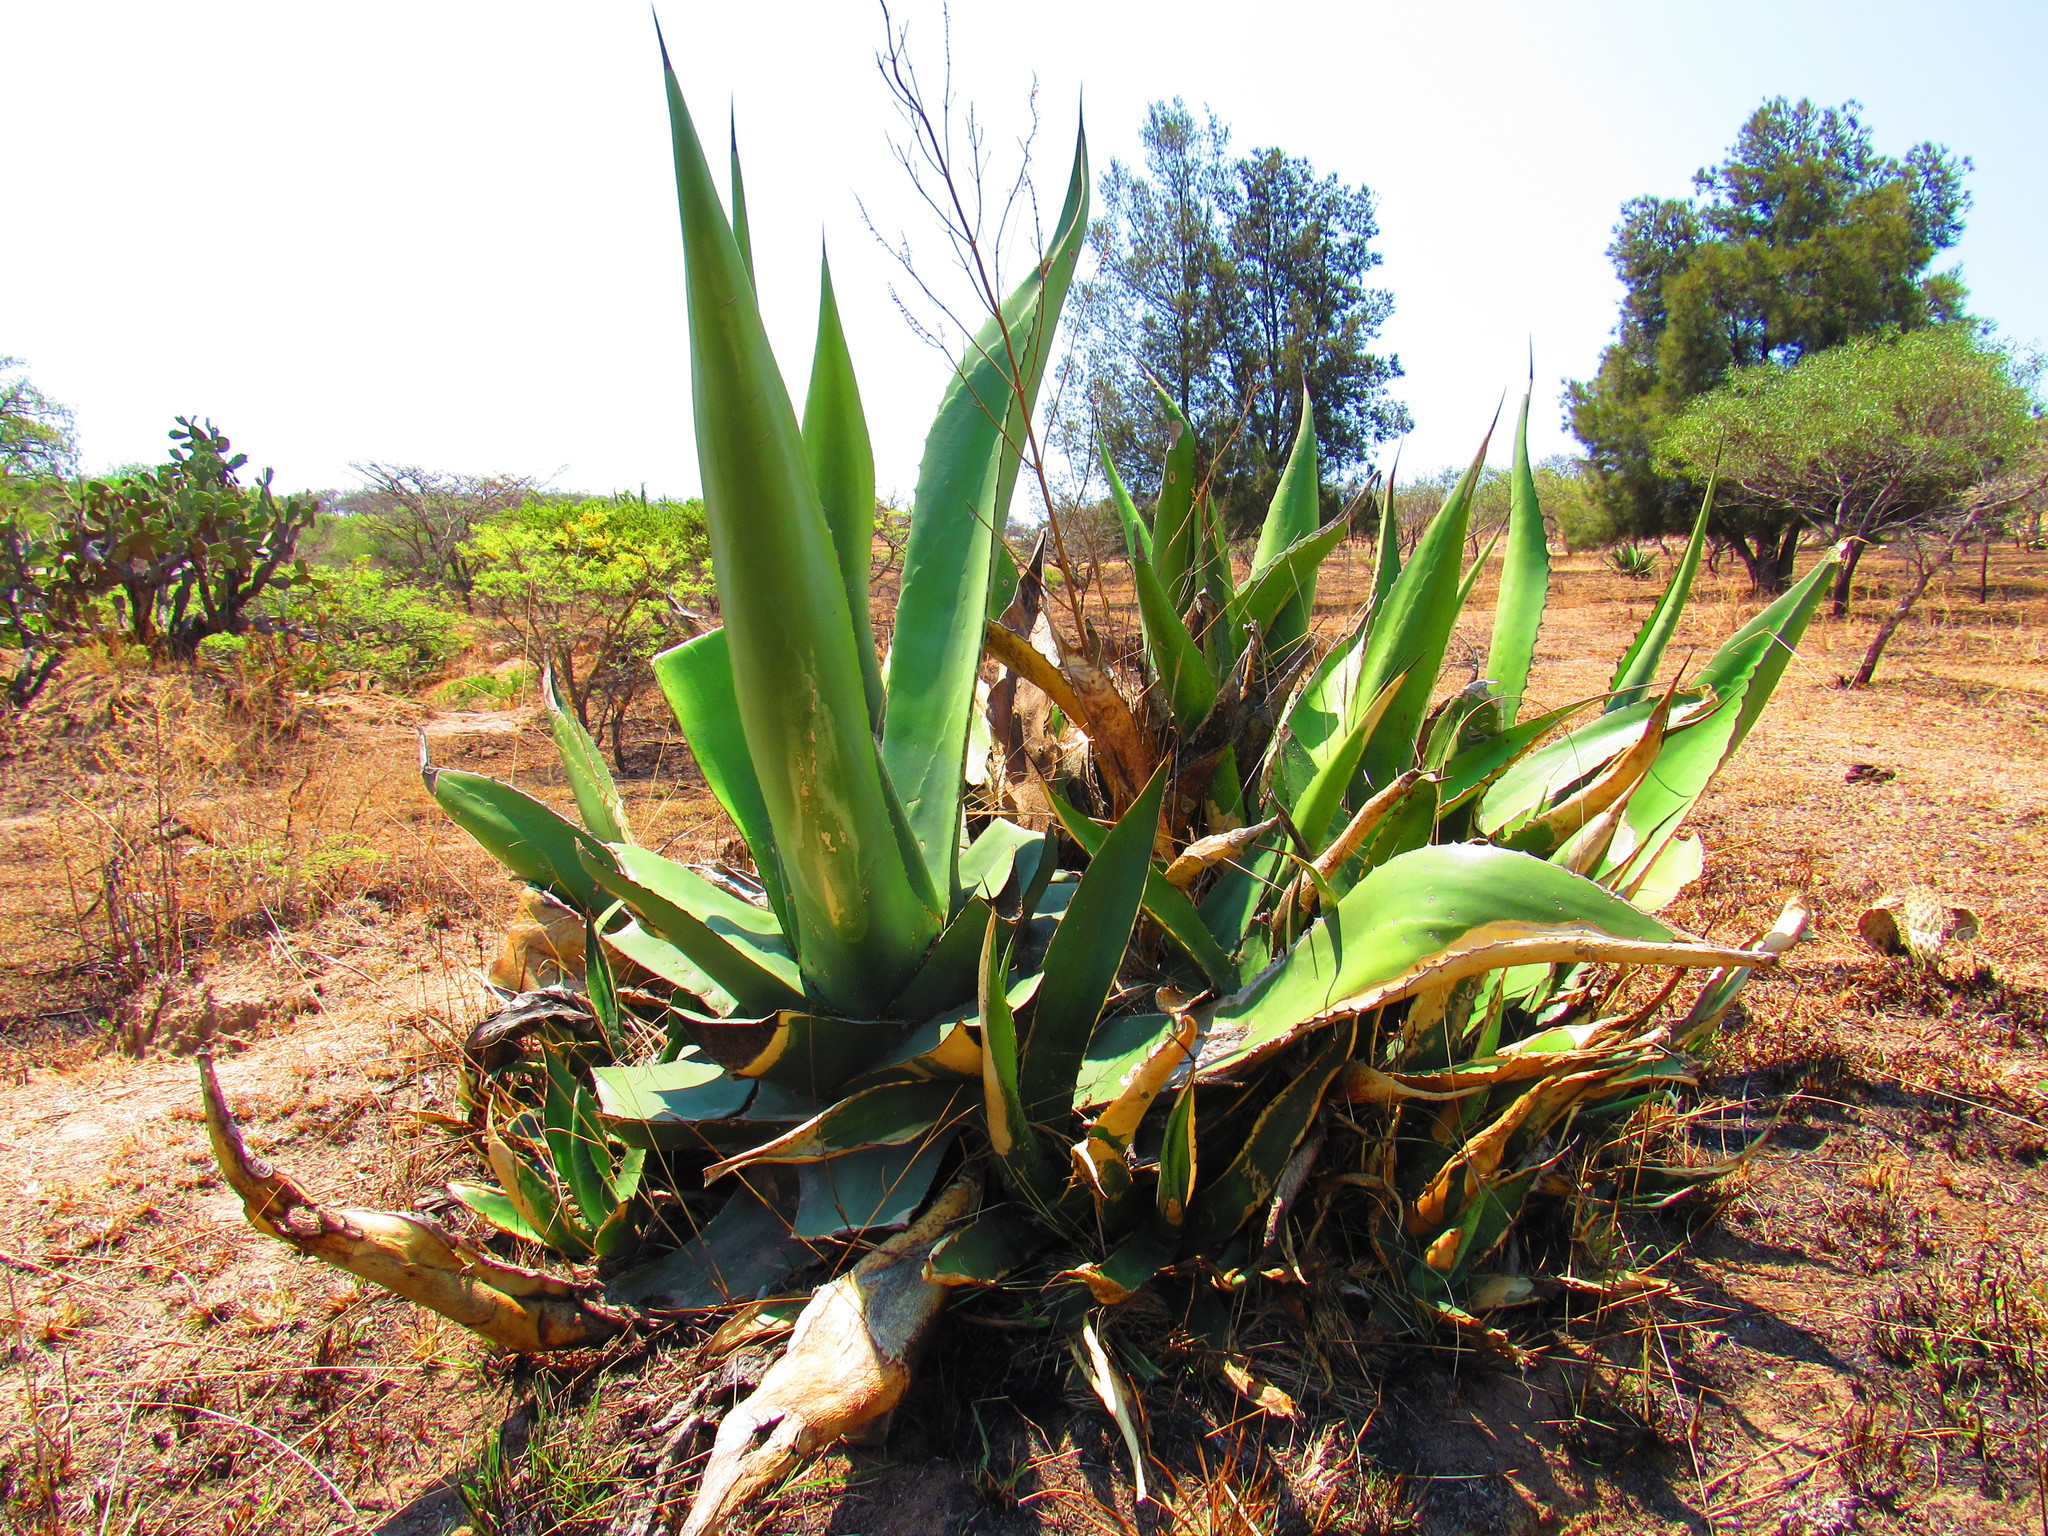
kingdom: Plantae
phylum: Tracheophyta
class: Liliopsida
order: Asparagales
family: Asparagaceae
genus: Agave
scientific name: Agave salmiana
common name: Pulque agave
